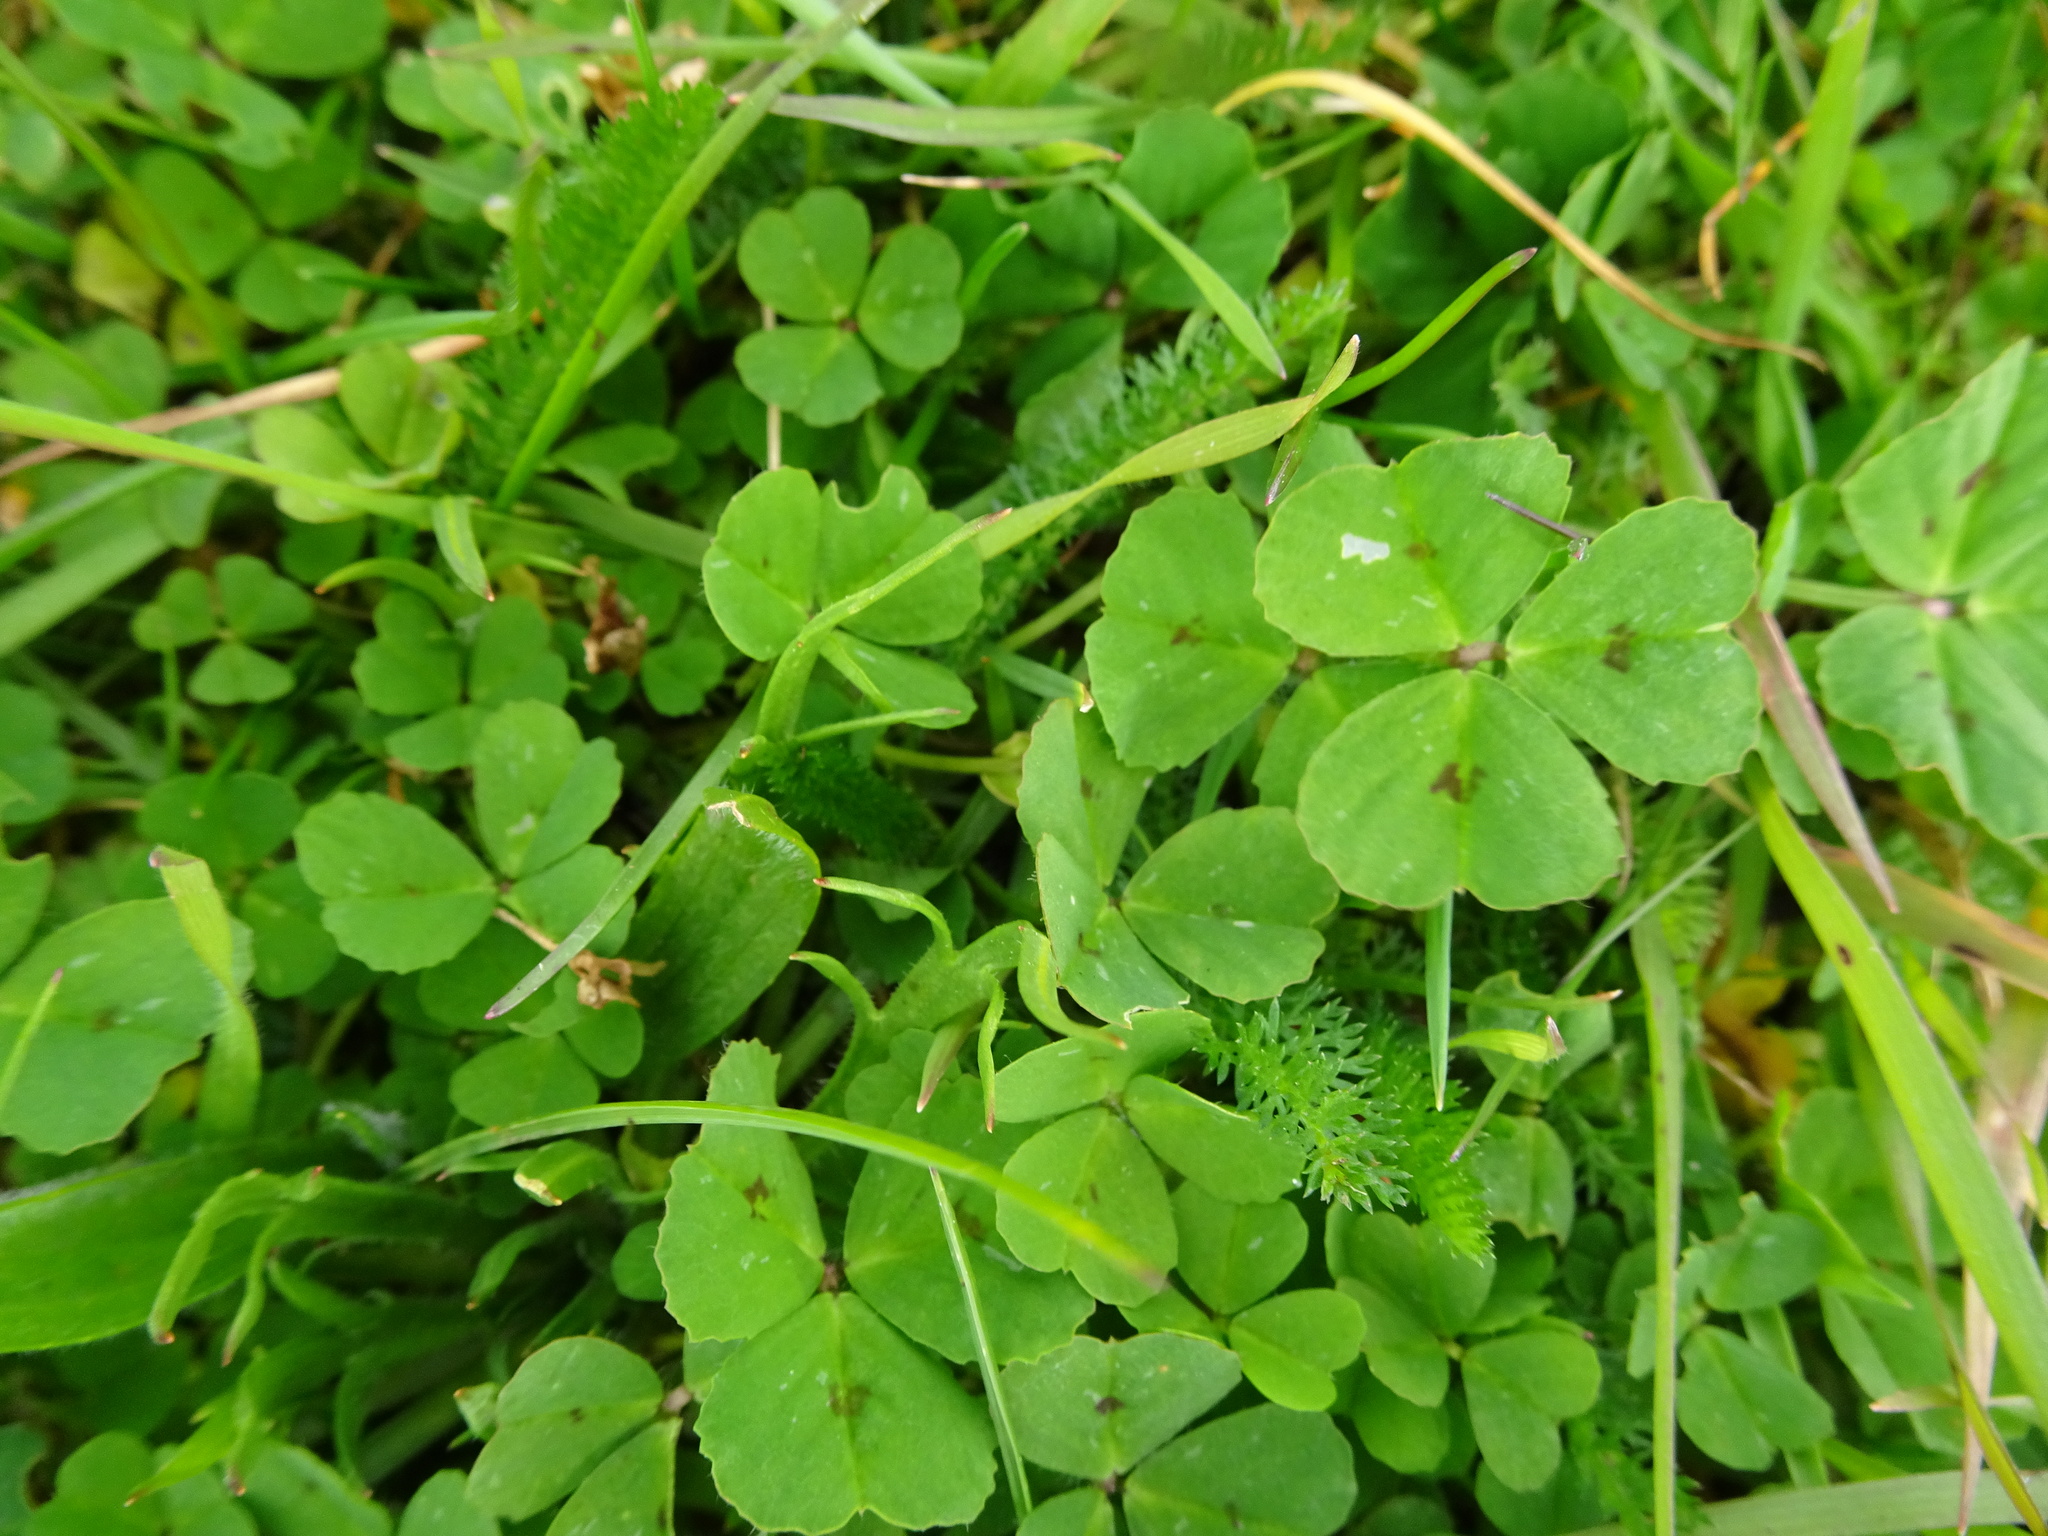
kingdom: Plantae
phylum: Tracheophyta
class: Magnoliopsida
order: Fabales
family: Fabaceae
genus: Medicago
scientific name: Medicago arabica
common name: Spotted medick
